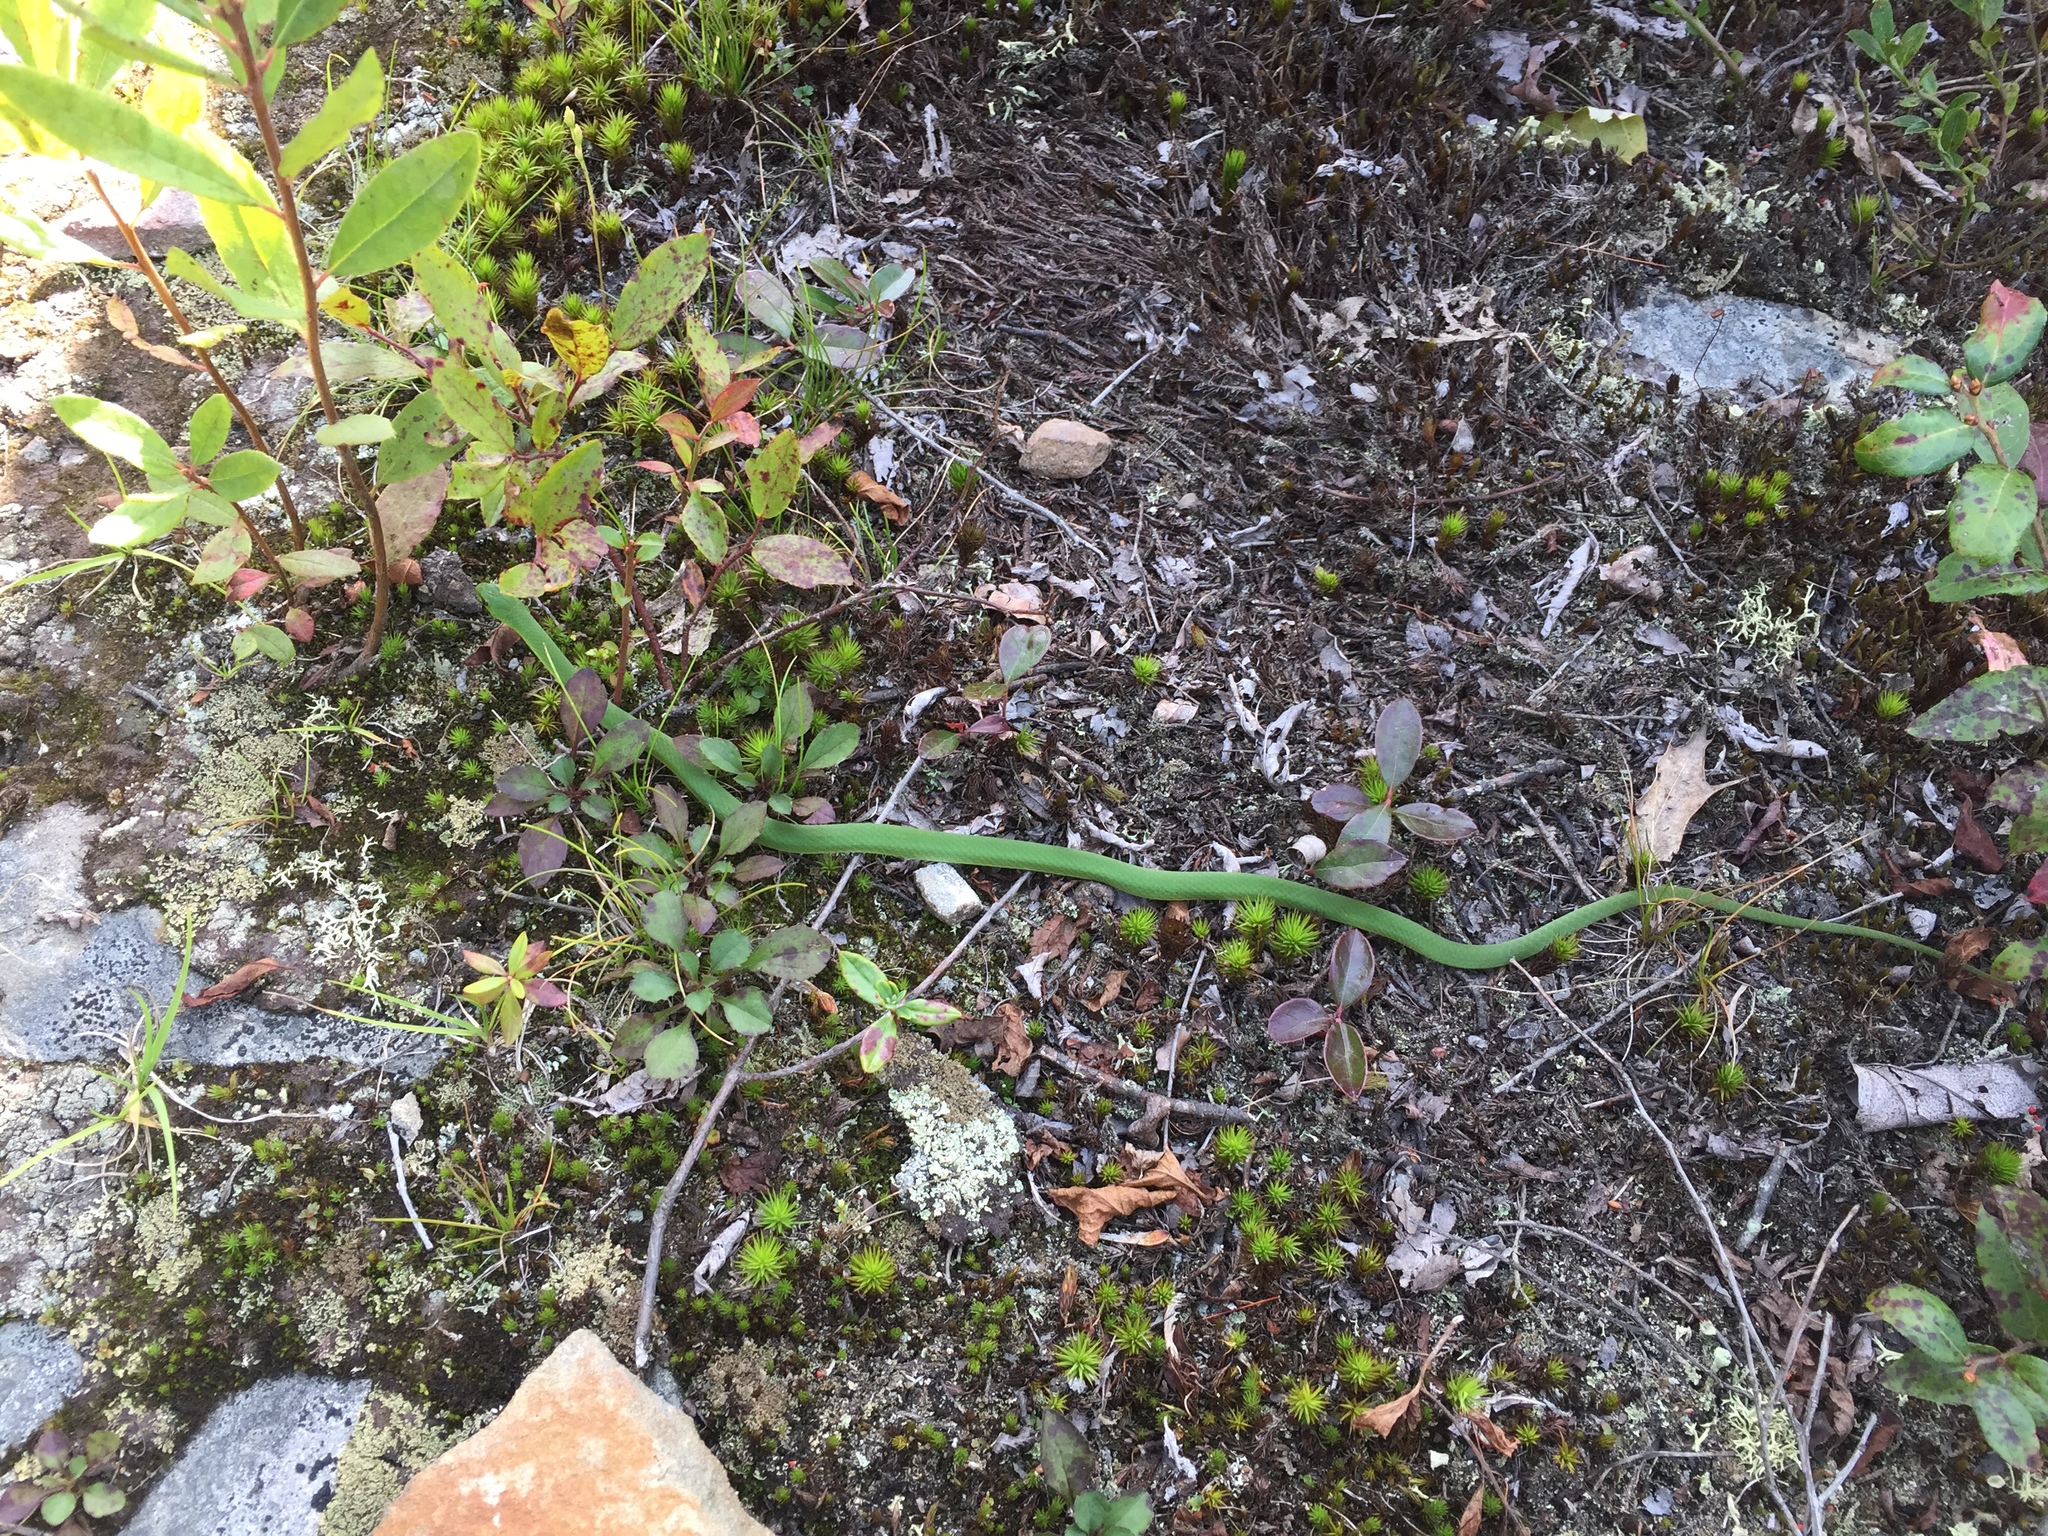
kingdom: Animalia
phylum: Chordata
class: Squamata
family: Colubridae
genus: Opheodrys
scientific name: Opheodrys vernalis
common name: Smooth green snake
